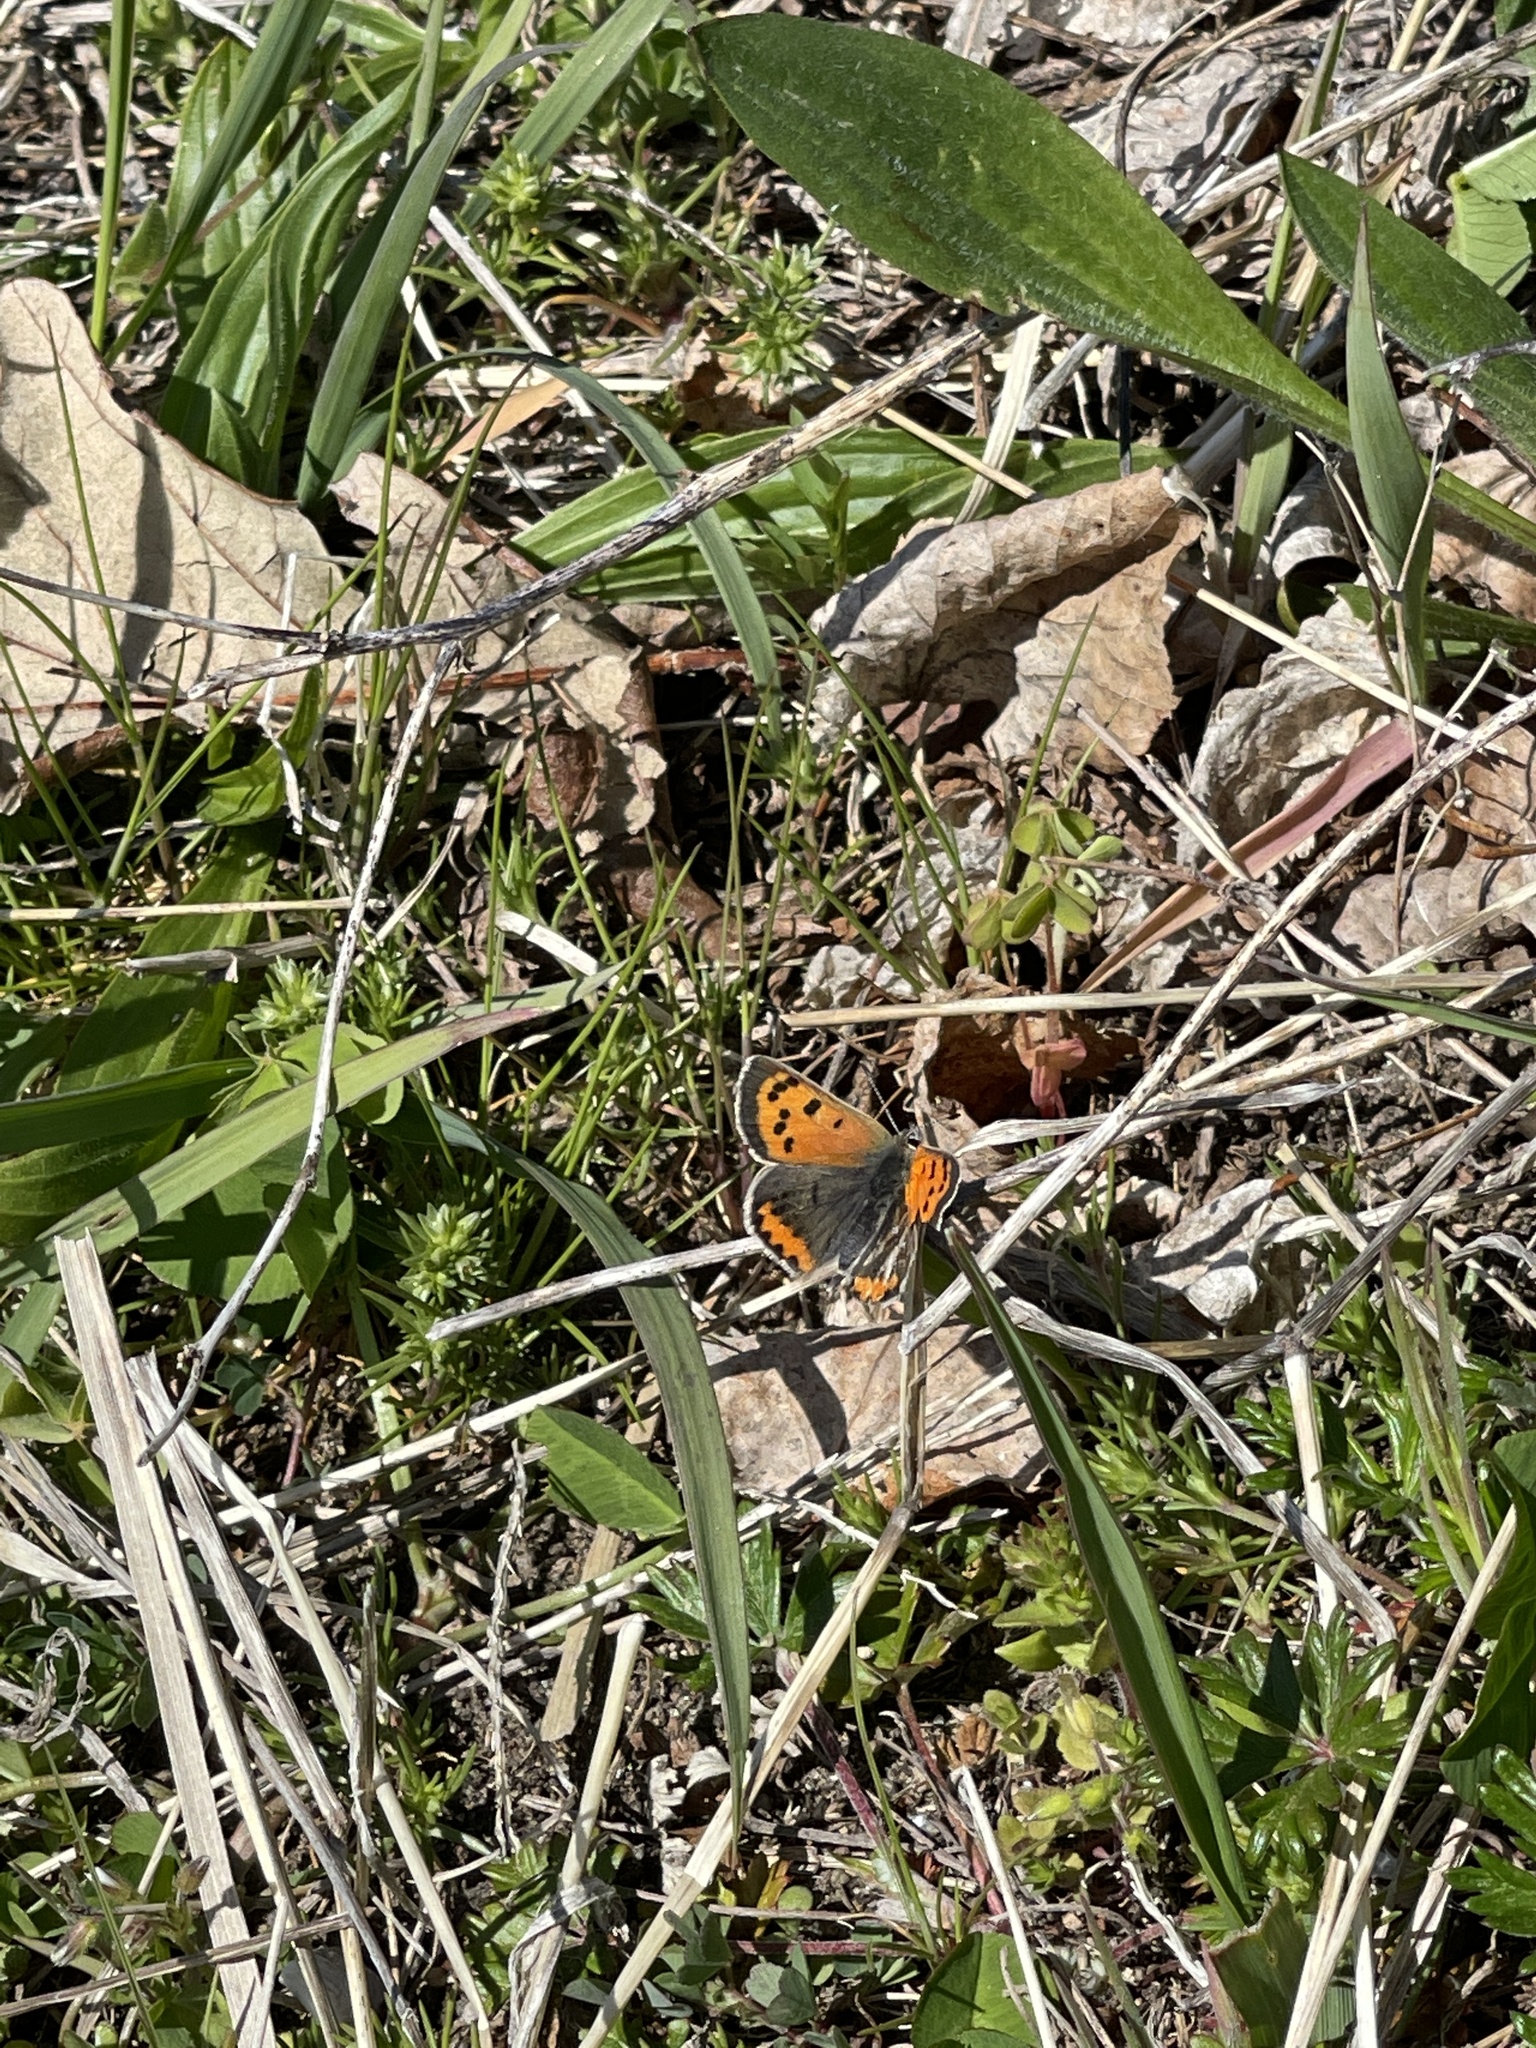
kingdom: Animalia
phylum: Arthropoda
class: Insecta
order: Lepidoptera
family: Lycaenidae
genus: Lycaena
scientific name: Lycaena hypophlaeas
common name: American copper
